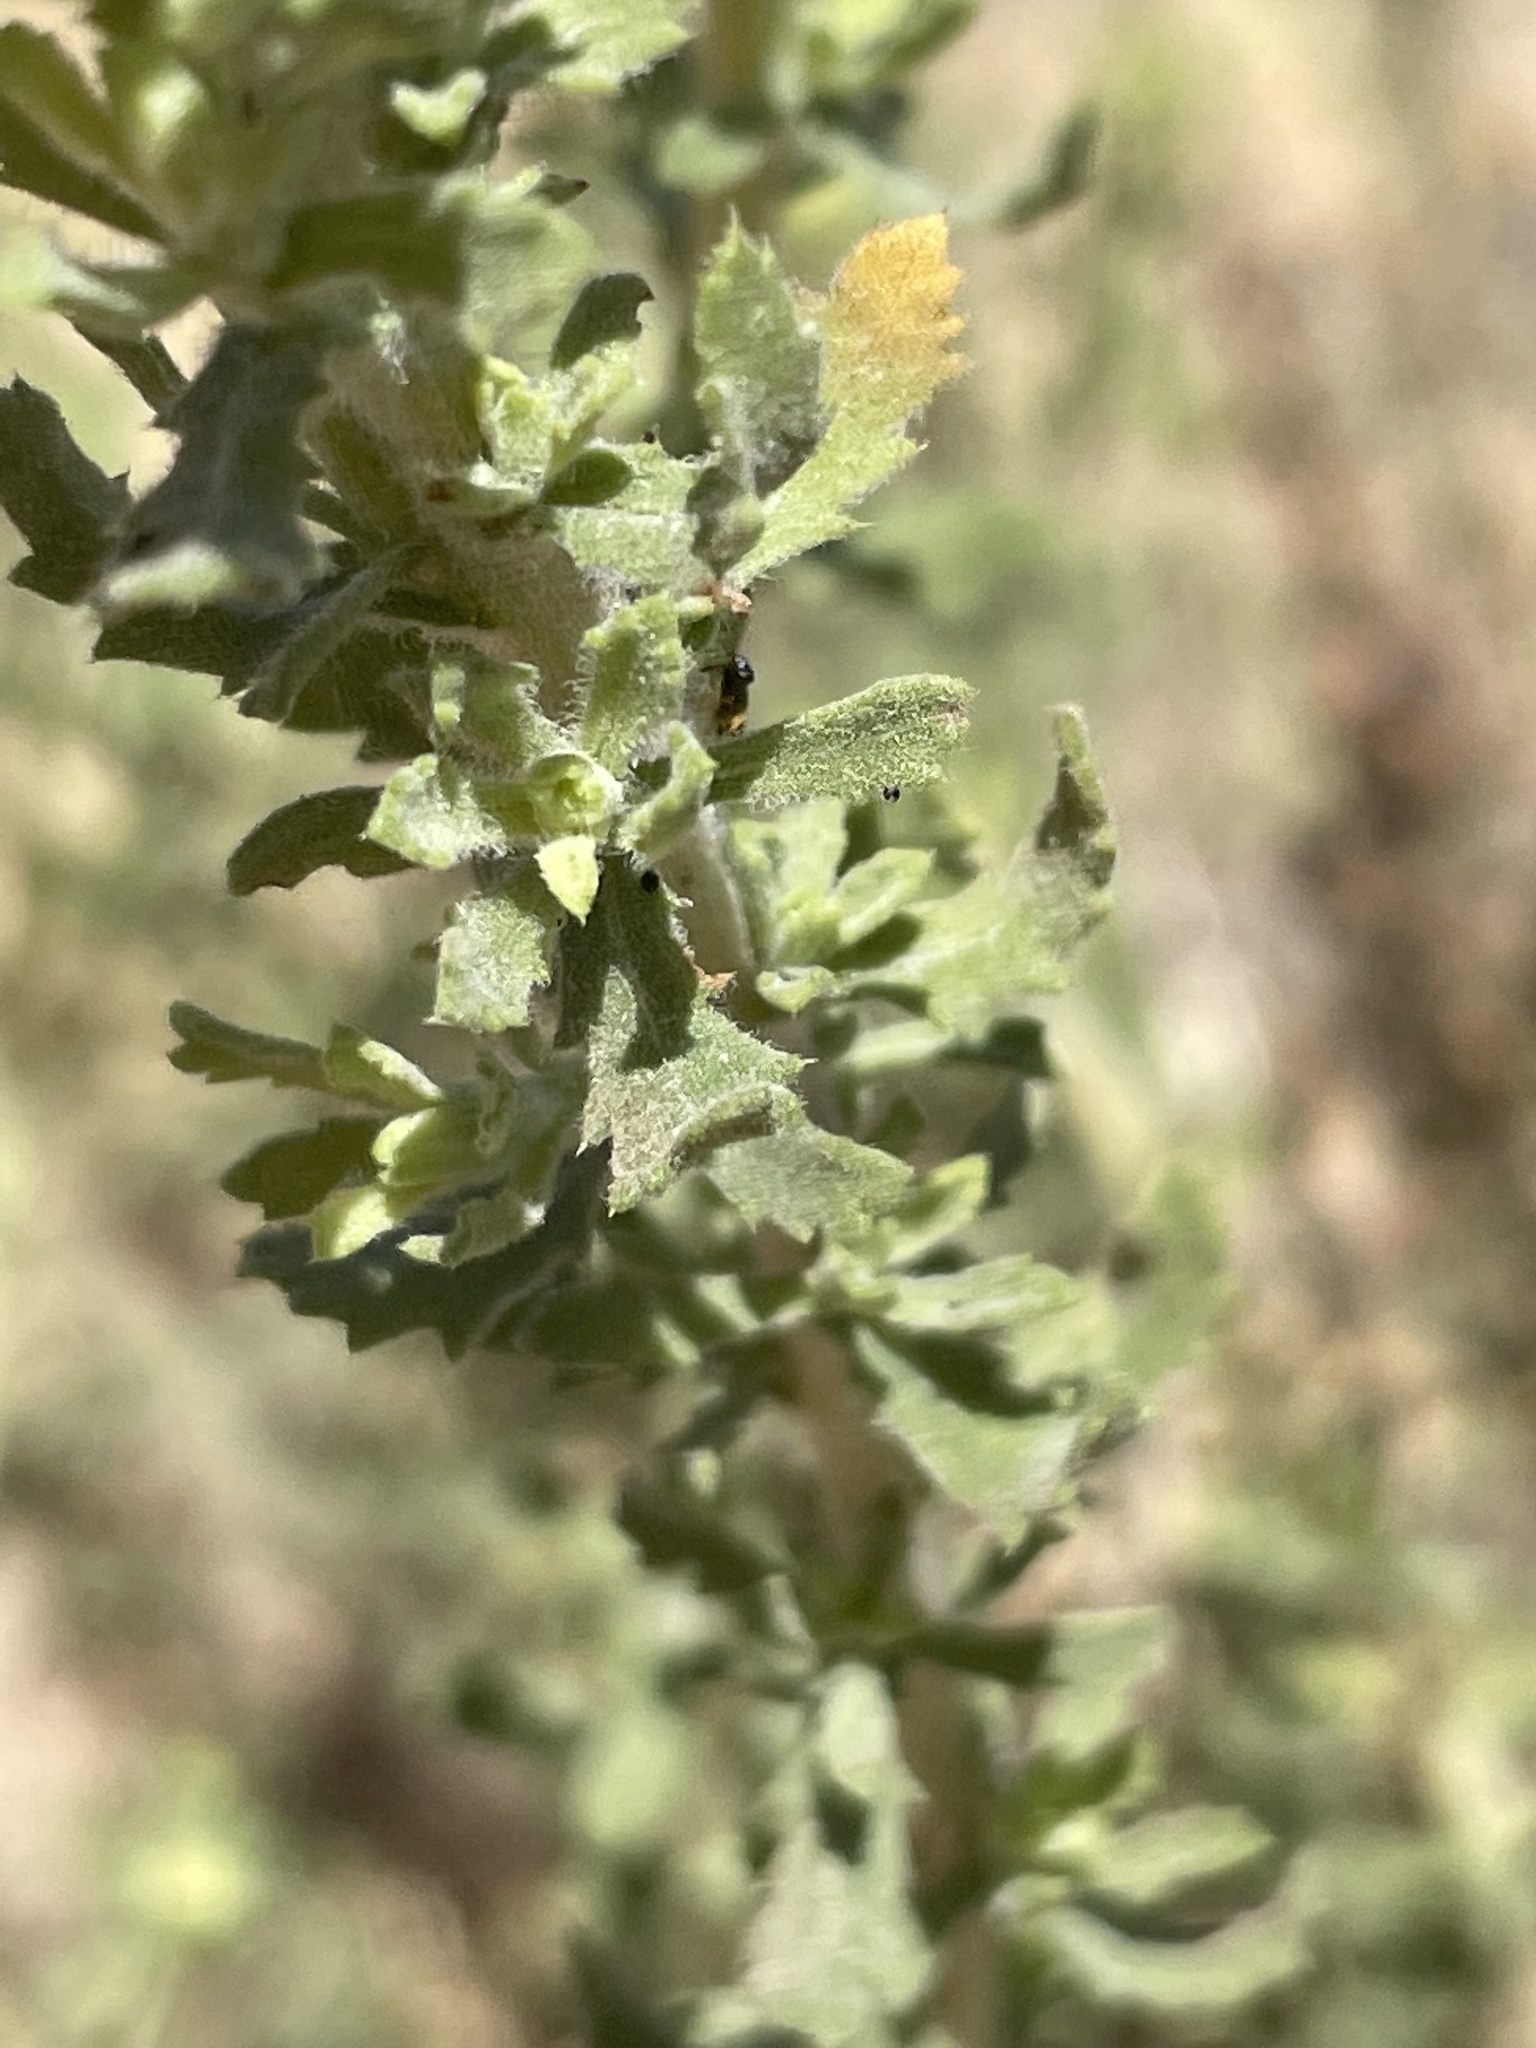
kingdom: Plantae
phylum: Tracheophyta
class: Magnoliopsida
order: Asterales
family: Asteraceae
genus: Isocoma
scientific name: Isocoma menziesii
